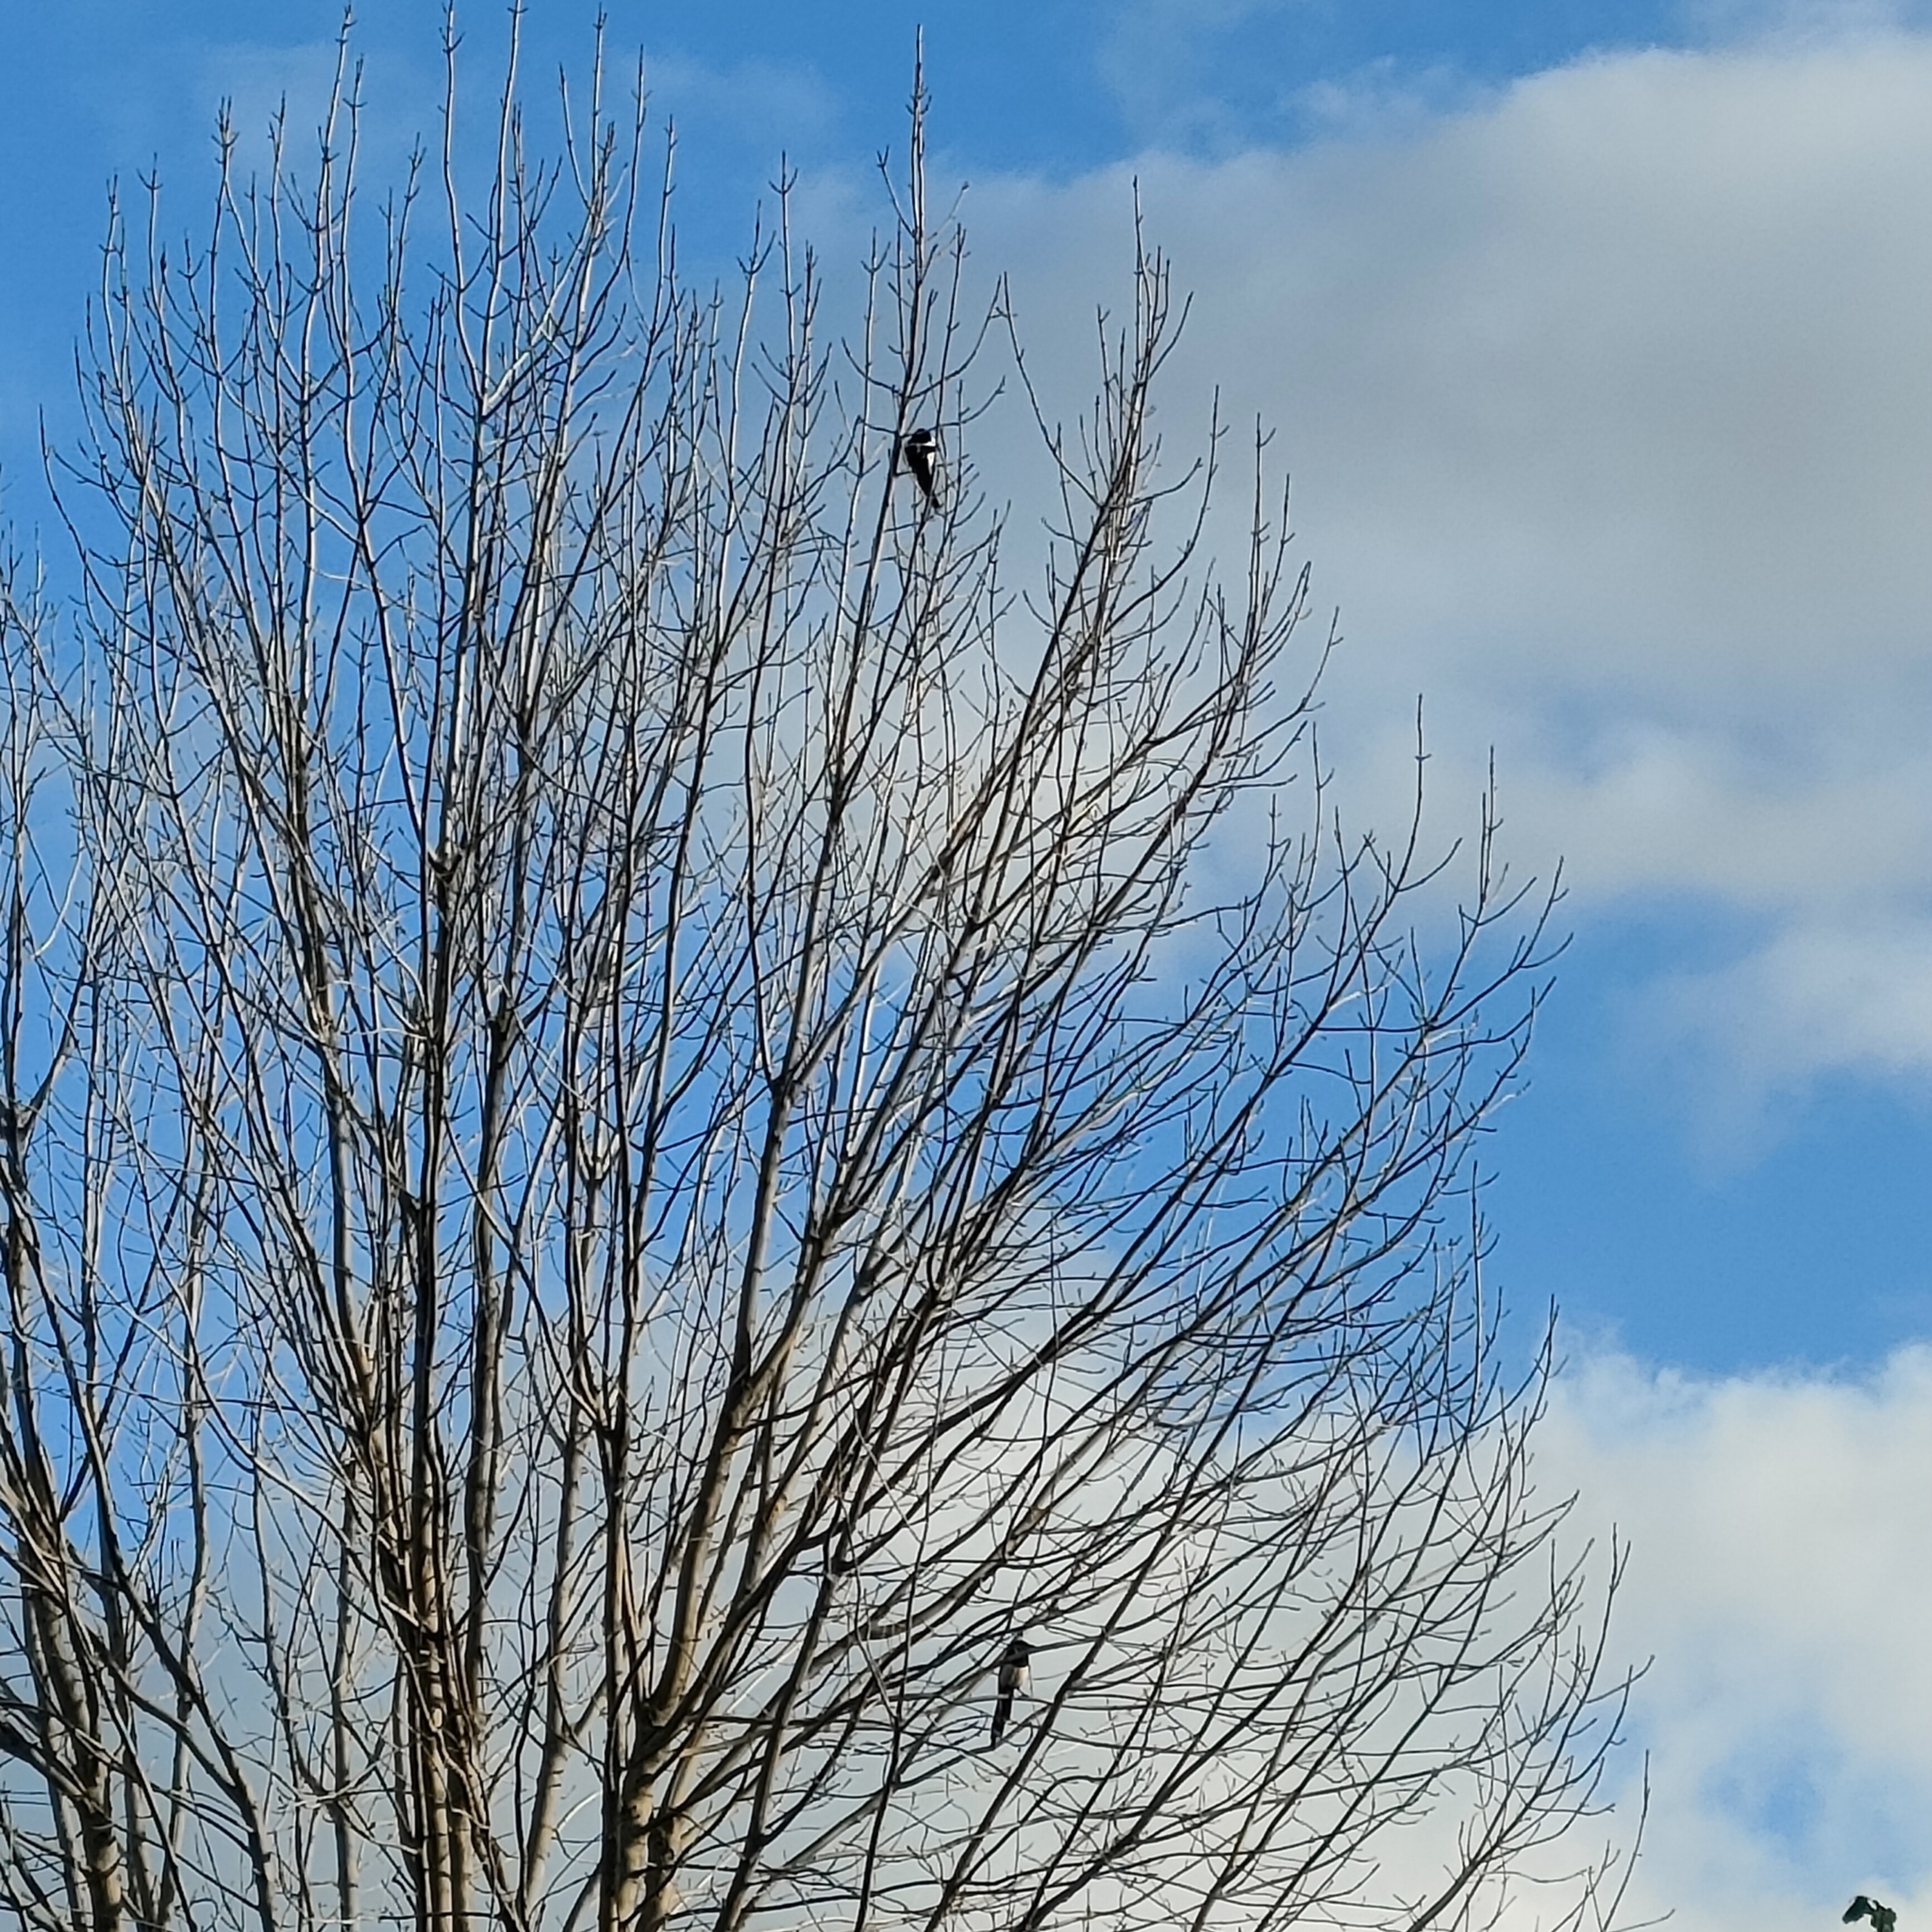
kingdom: Animalia
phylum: Chordata
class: Aves
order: Passeriformes
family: Corvidae
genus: Pica
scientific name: Pica pica
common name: Eurasian magpie
